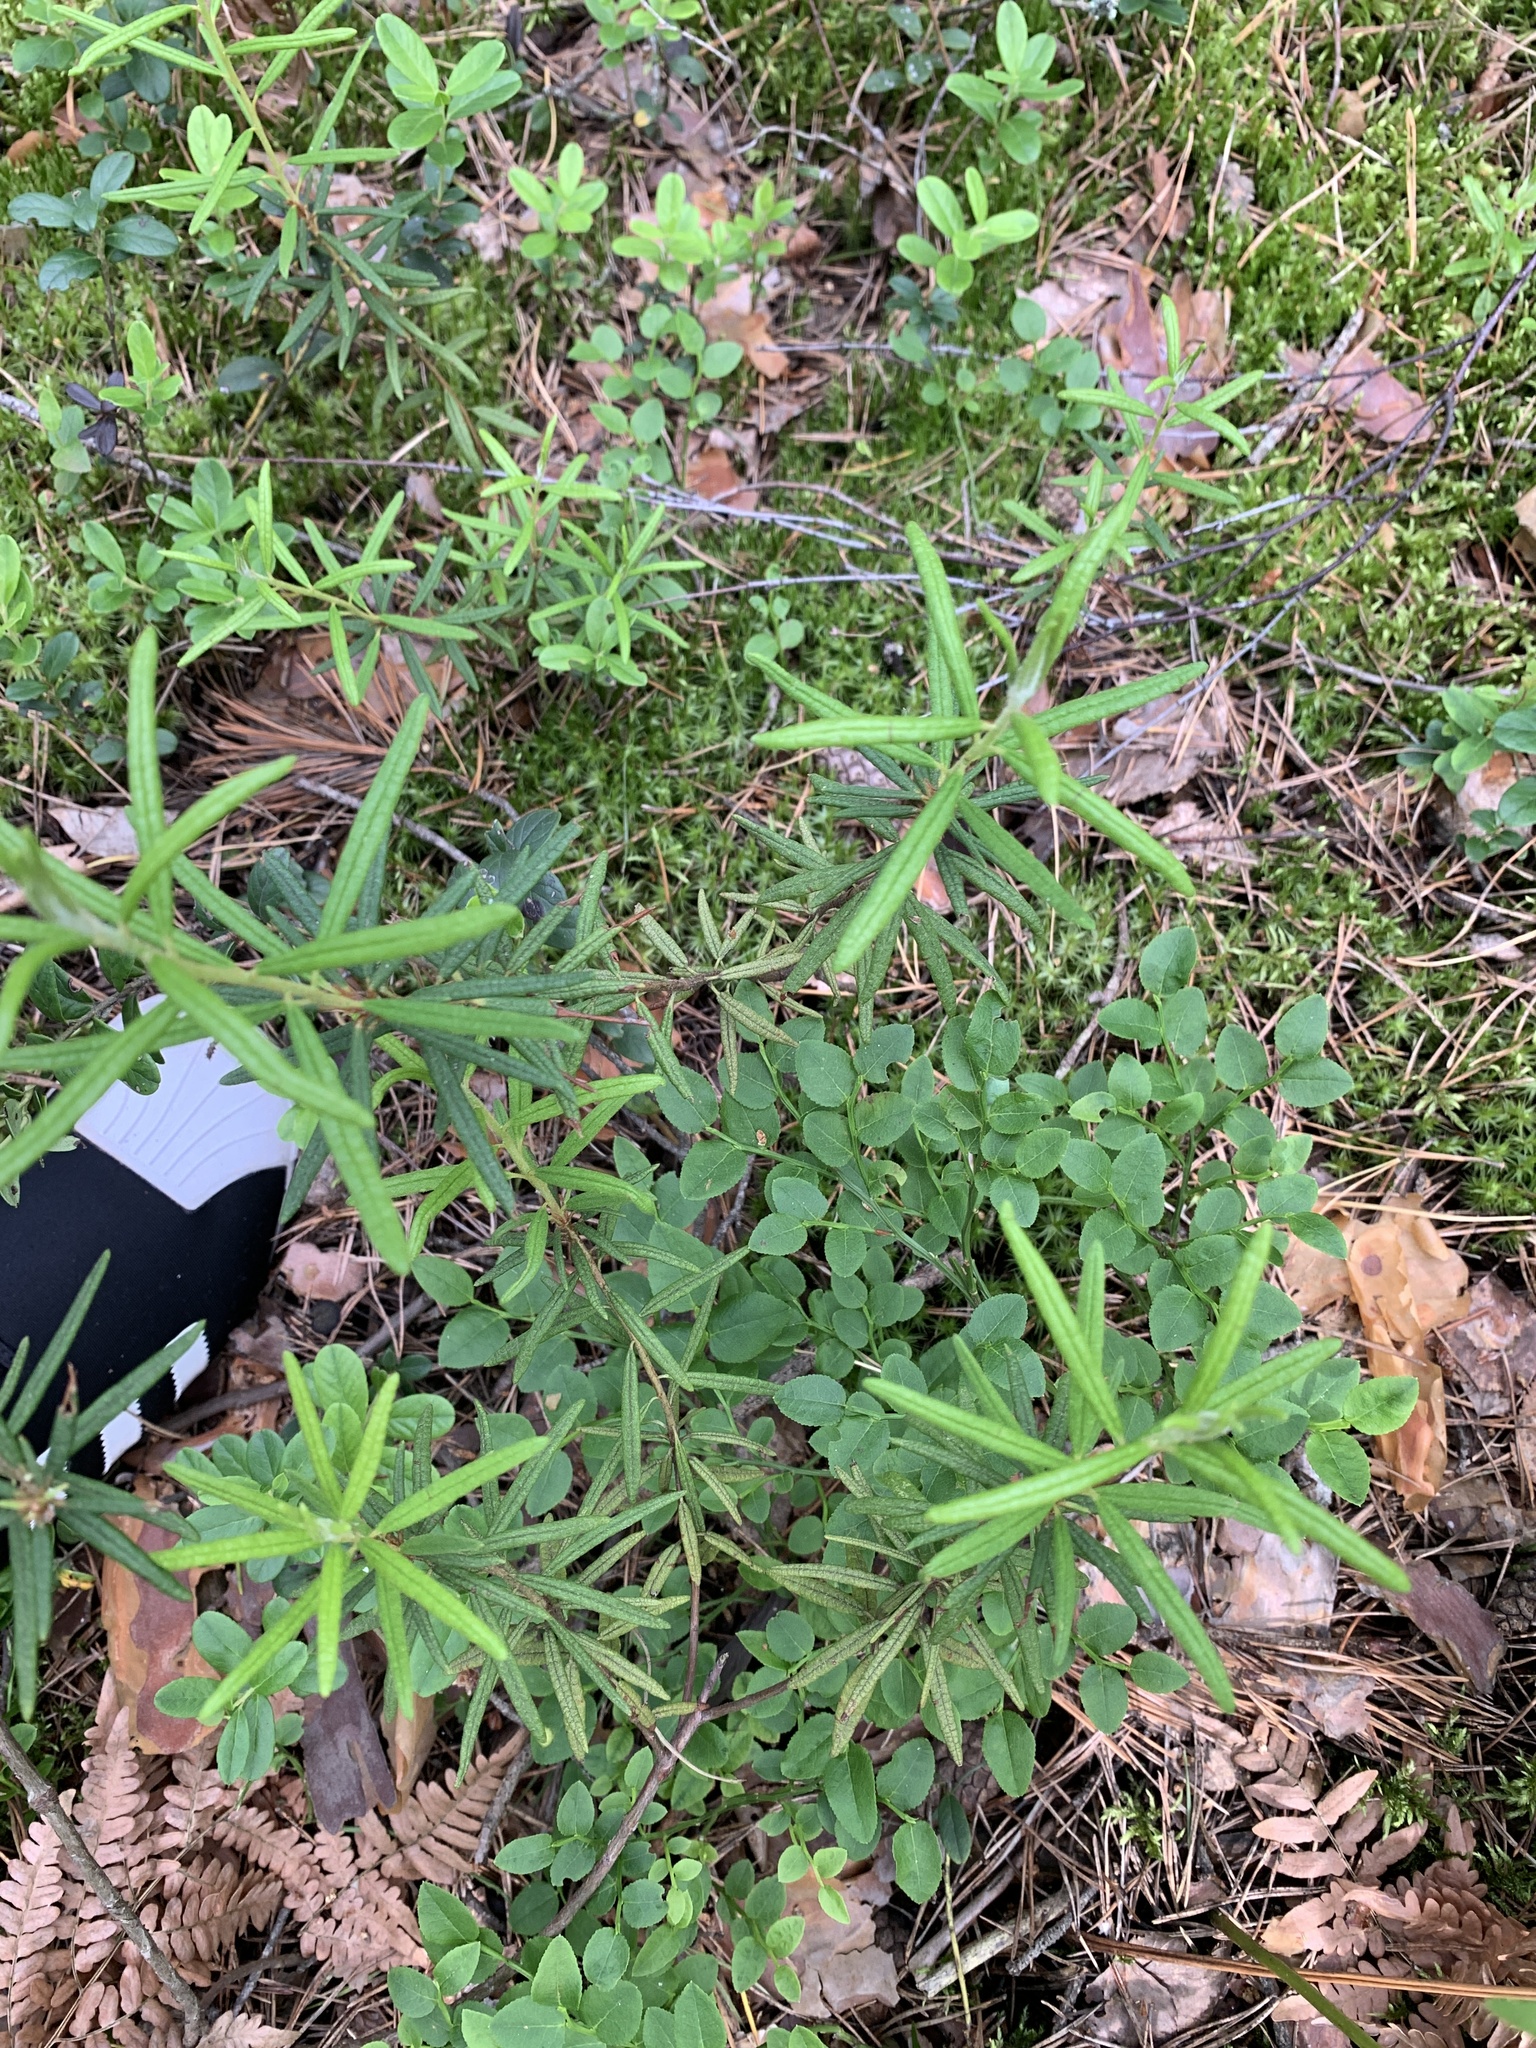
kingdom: Plantae
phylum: Tracheophyta
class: Magnoliopsida
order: Ericales
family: Ericaceae
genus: Rhododendron
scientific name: Rhododendron tomentosum
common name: Marsh labrador tea
